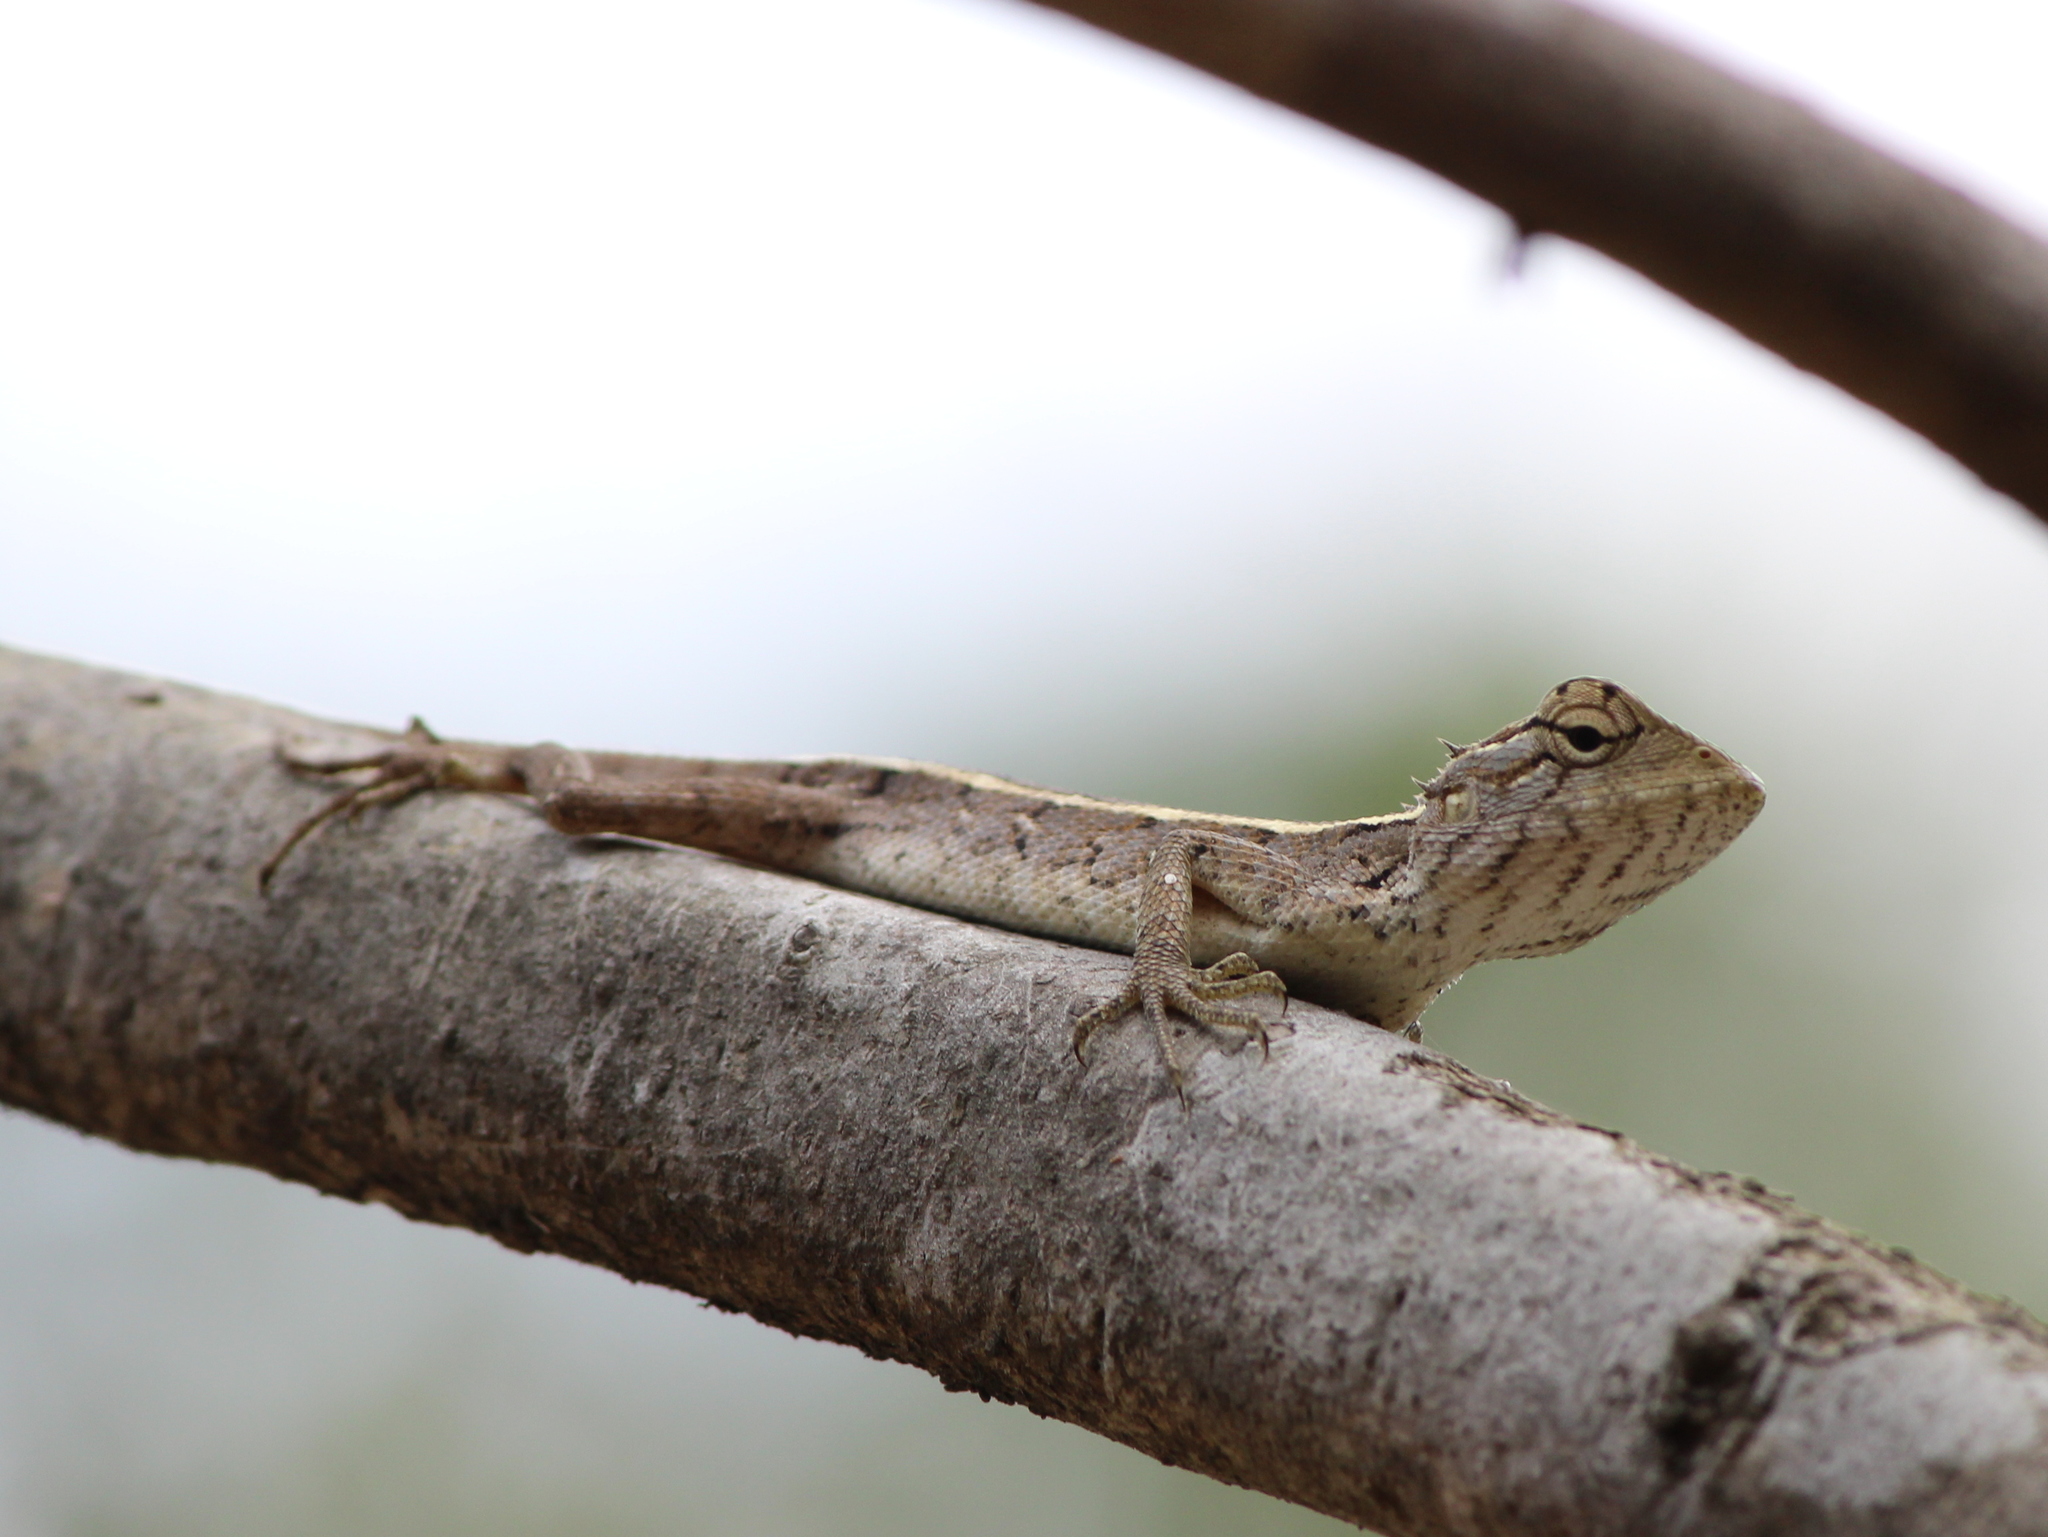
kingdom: Animalia
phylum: Chordata
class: Squamata
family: Agamidae
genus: Calotes
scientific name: Calotes versicolor
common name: Oriental garden lizard
